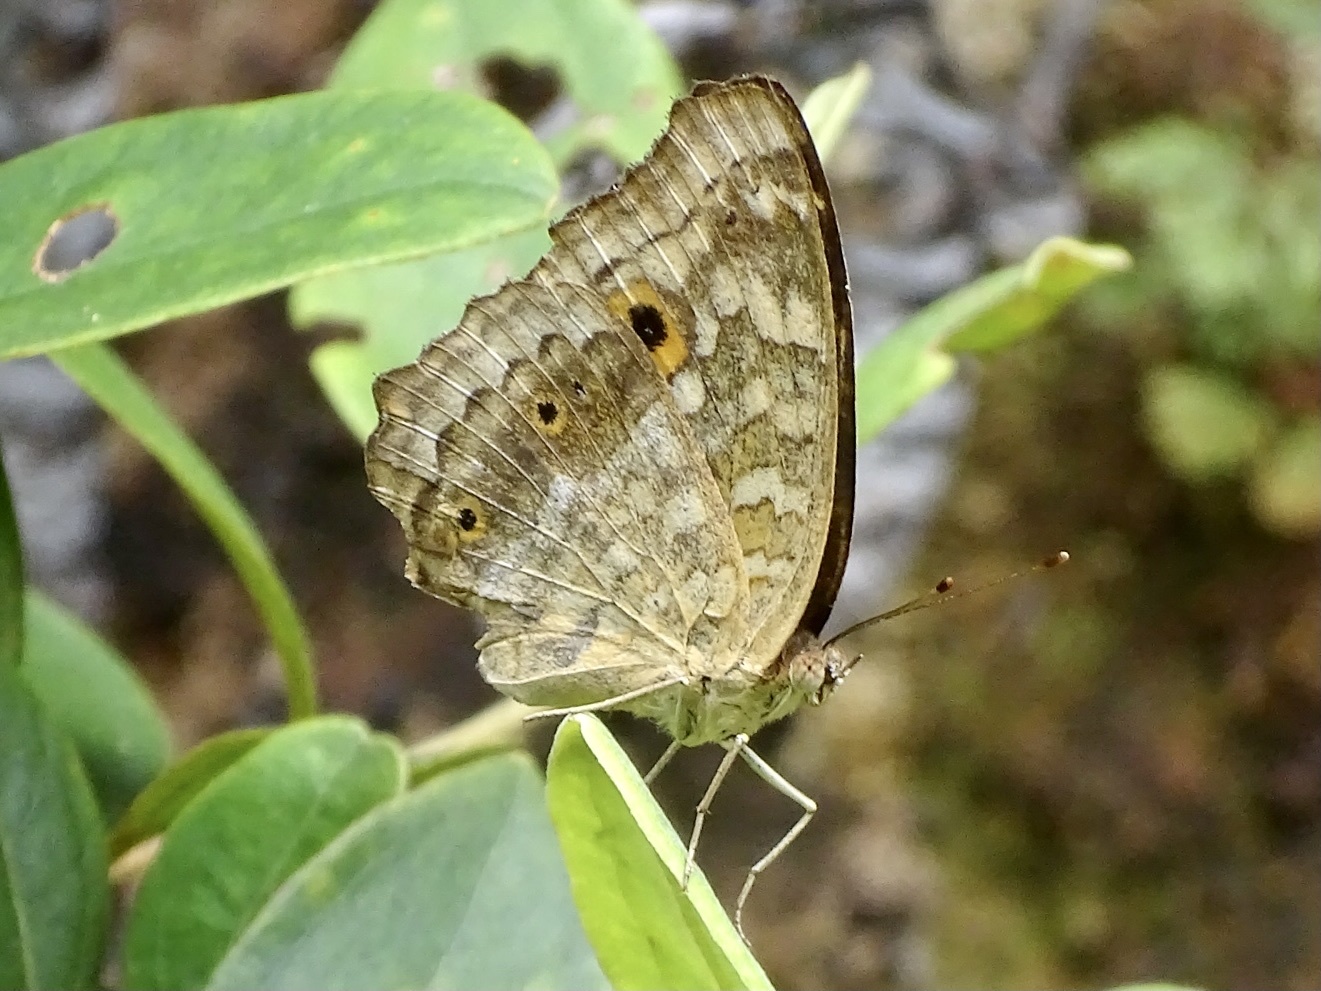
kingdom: Animalia
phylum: Arthropoda
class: Insecta
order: Lepidoptera
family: Nymphalidae
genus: Junonia
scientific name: Junonia lemonias
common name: Lemon pansy
